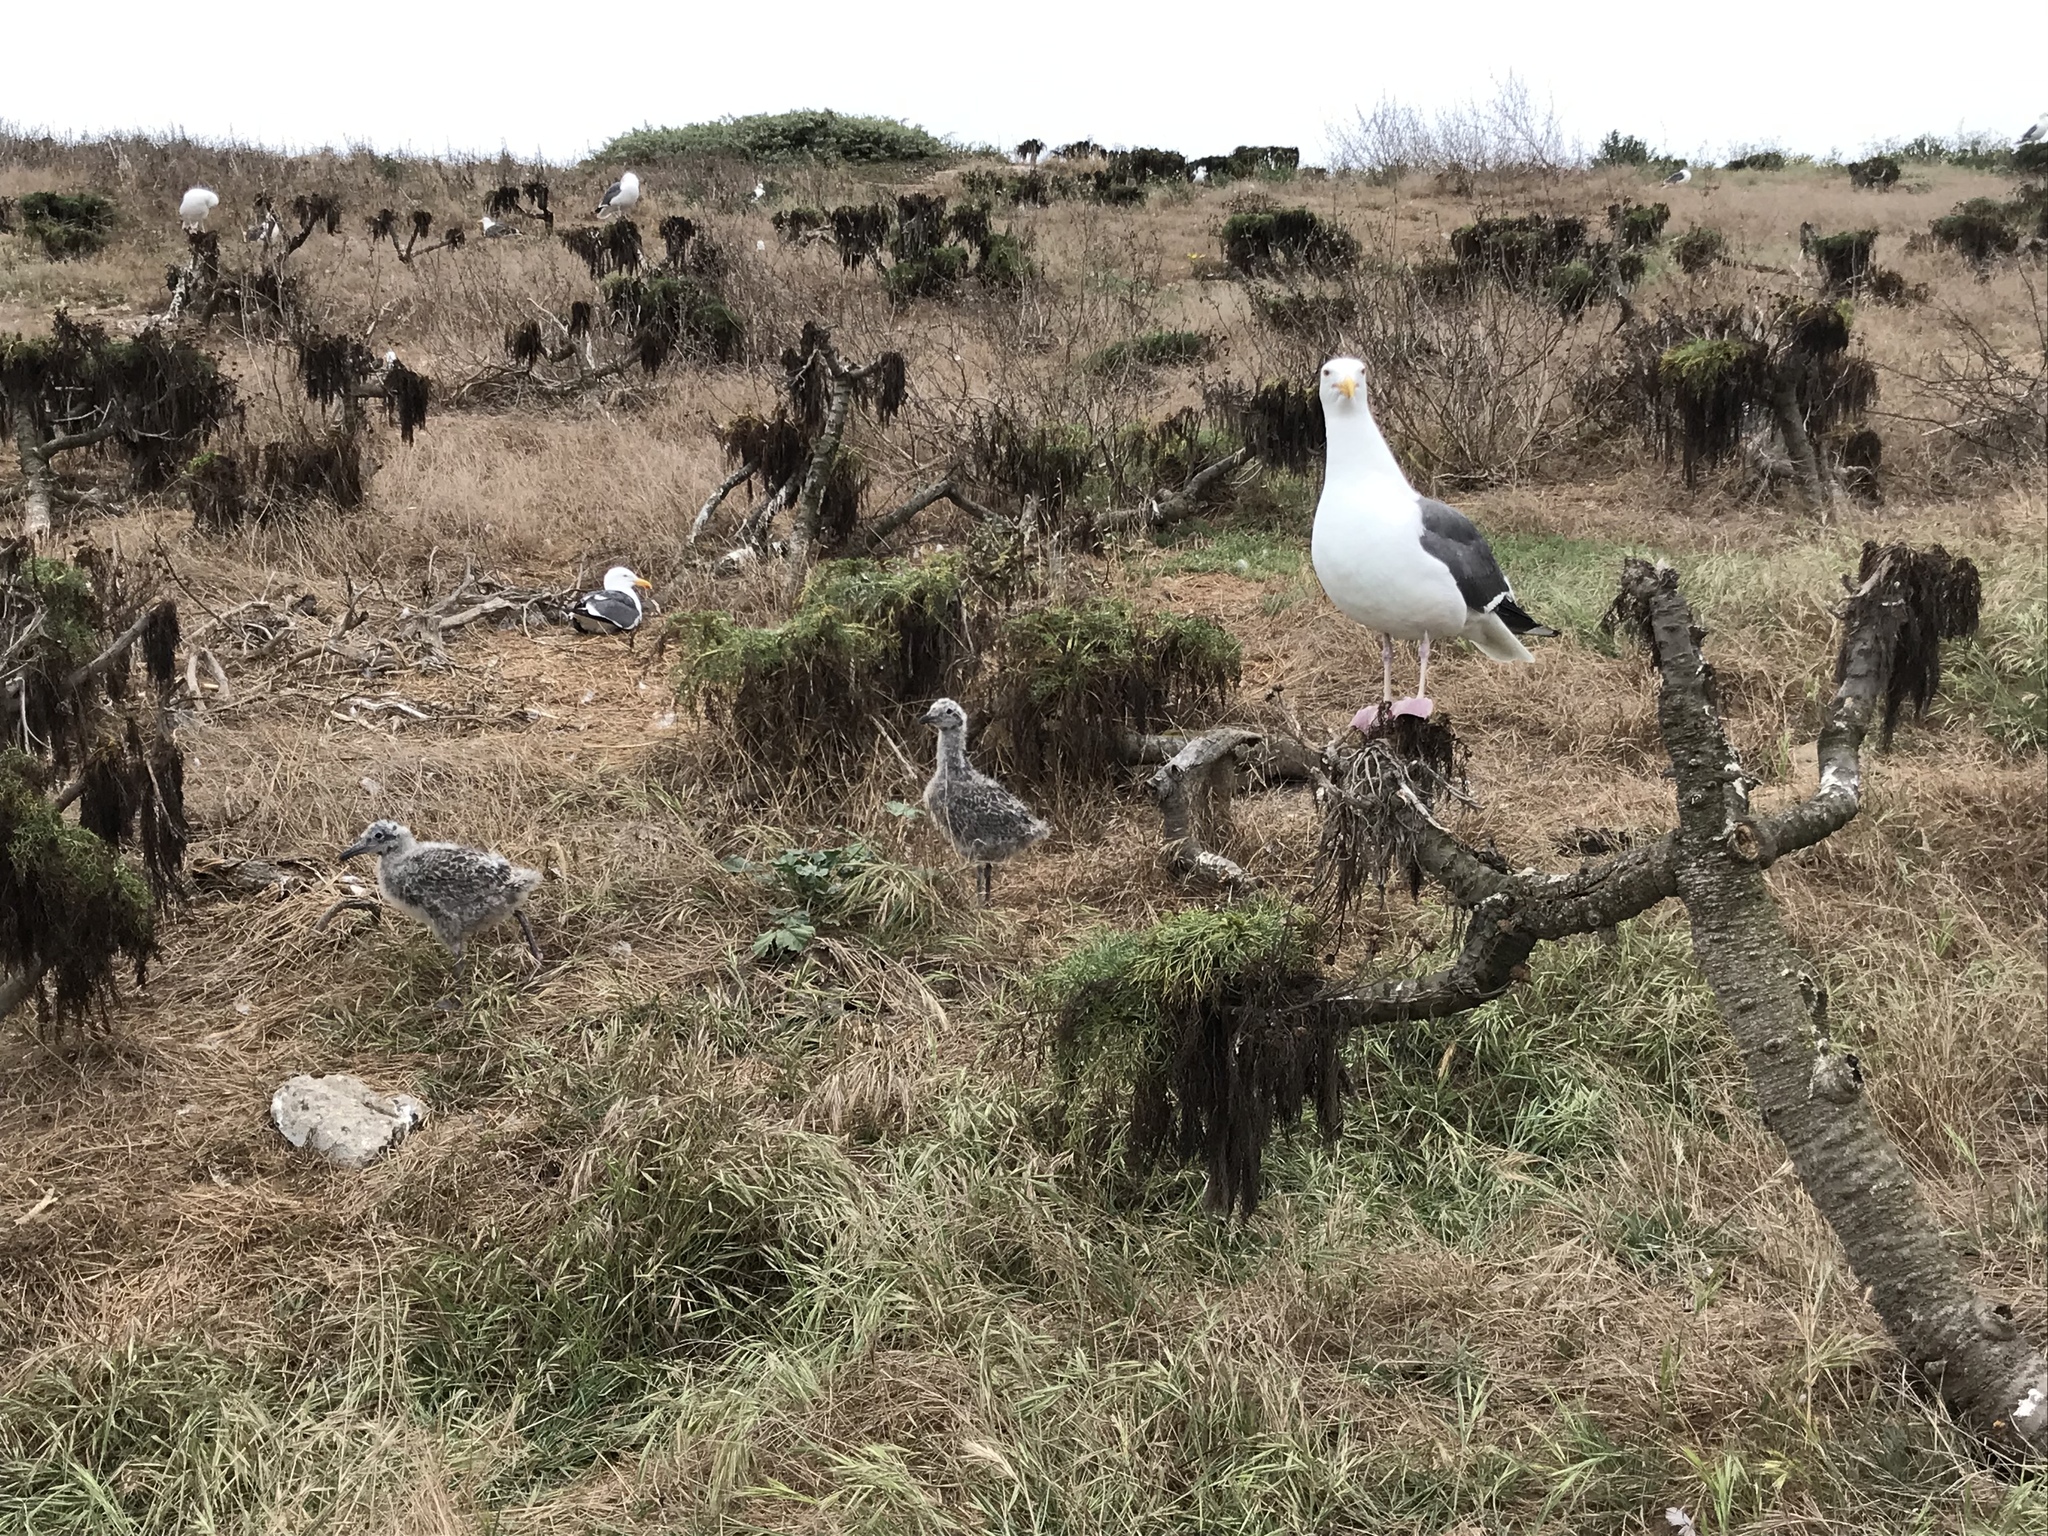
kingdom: Animalia
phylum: Chordata
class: Aves
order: Charadriiformes
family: Laridae
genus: Larus
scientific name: Larus occidentalis
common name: Western gull
